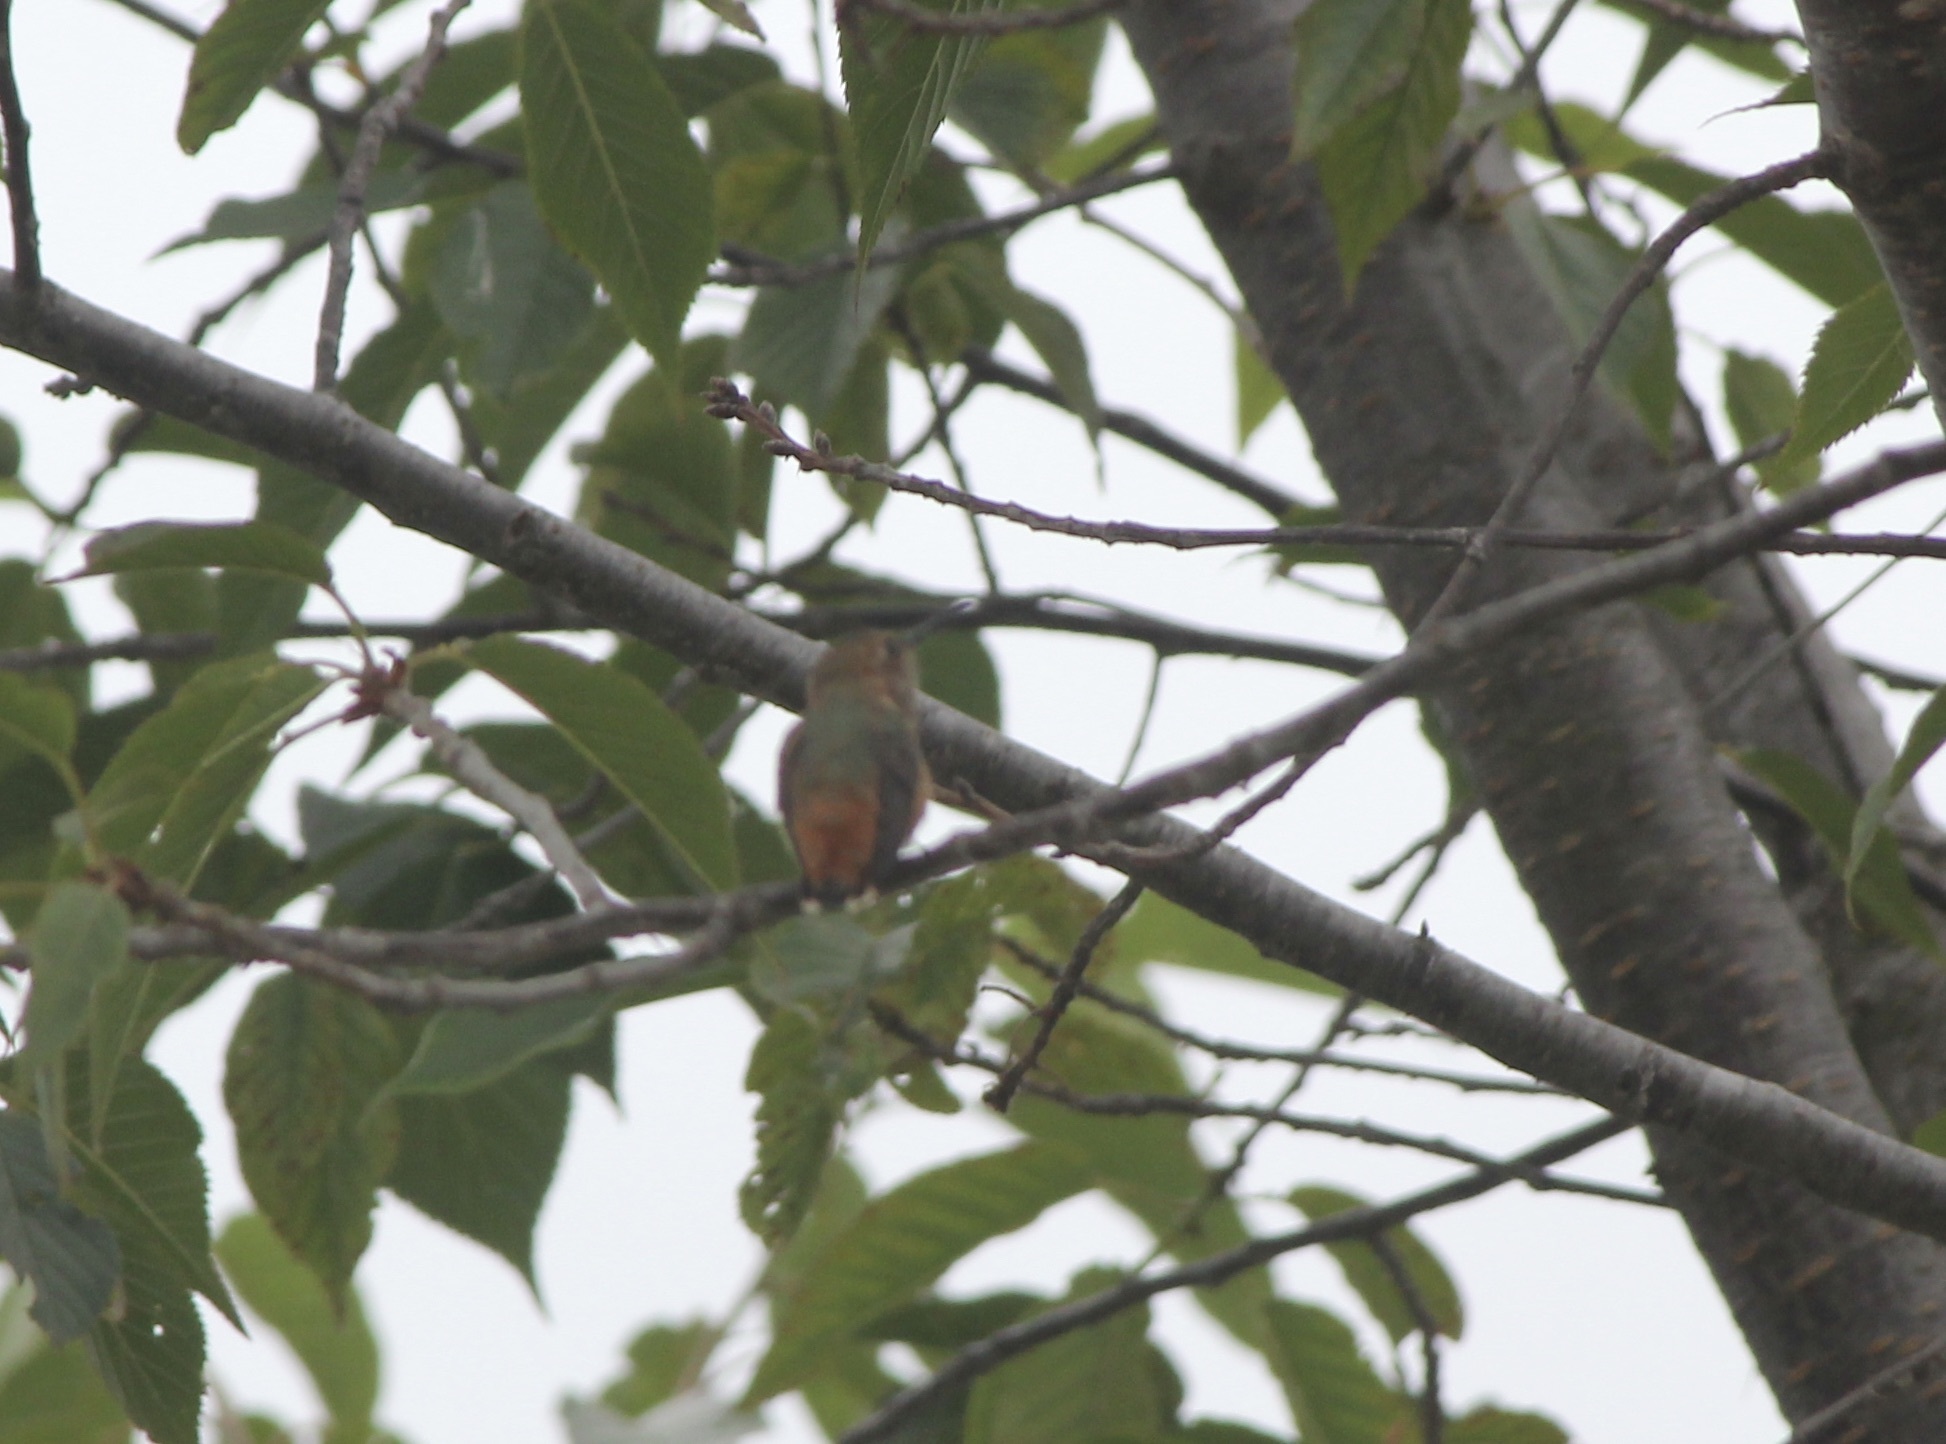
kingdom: Animalia
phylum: Chordata
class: Aves
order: Apodiformes
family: Trochilidae
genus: Selasphorus
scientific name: Selasphorus sasin
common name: Allen's hummingbird
